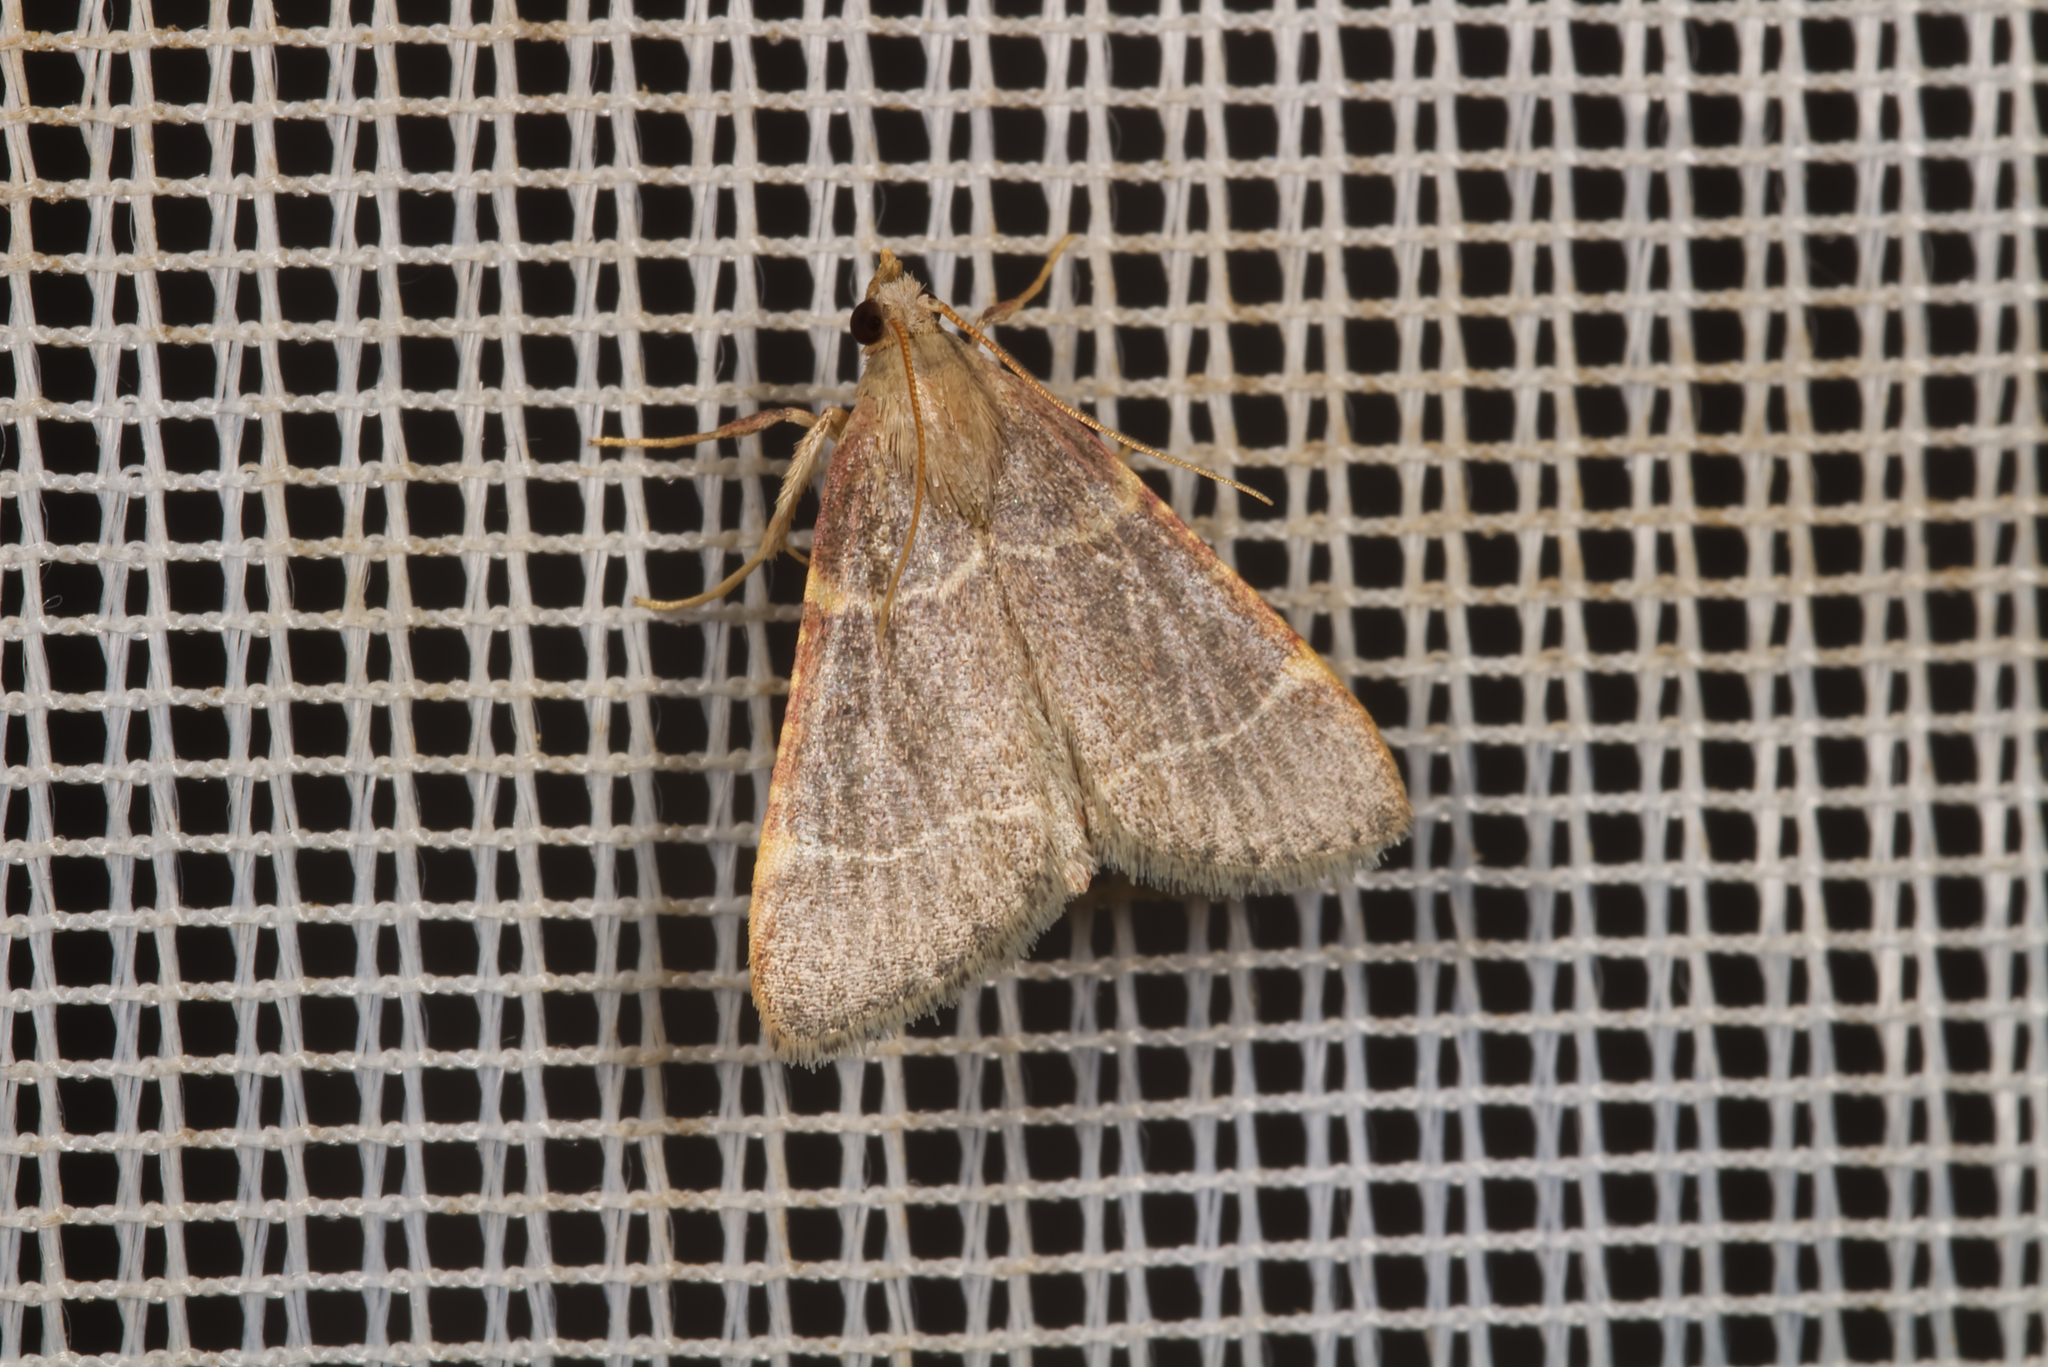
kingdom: Animalia
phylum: Arthropoda
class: Insecta
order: Lepidoptera
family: Pyralidae
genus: Hypsopygia
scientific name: Hypsopygia glaucinalis
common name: Double-striped tabby
